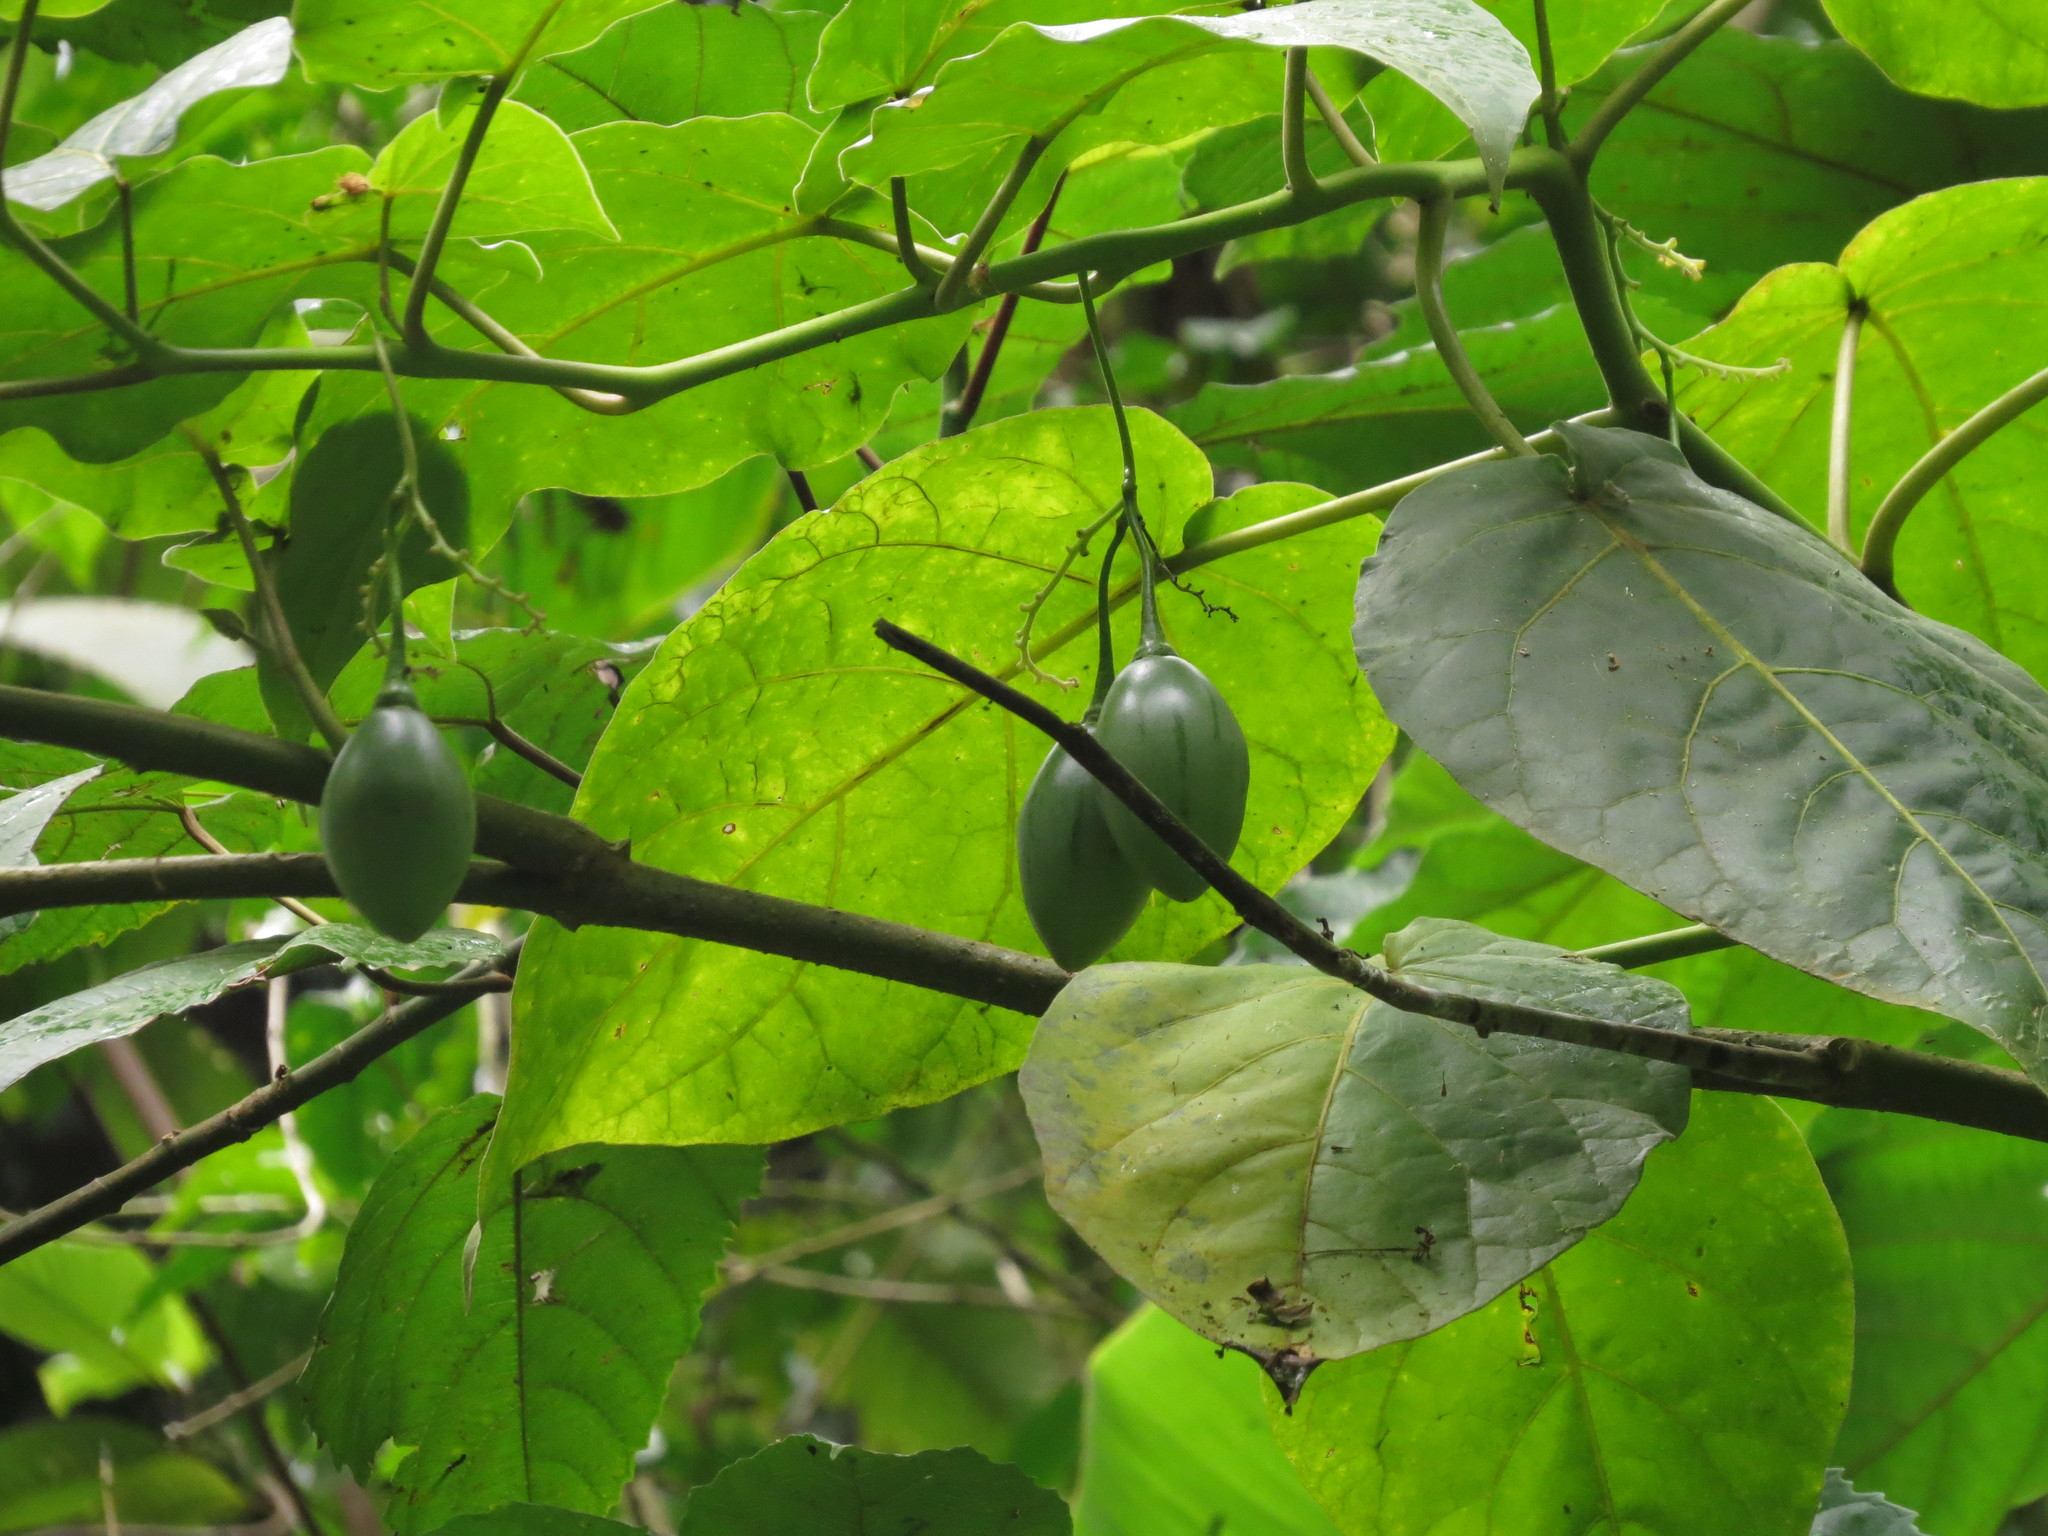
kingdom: Plantae
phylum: Tracheophyta
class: Magnoliopsida
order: Solanales
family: Solanaceae
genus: Solanum
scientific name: Solanum betaceum
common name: Tamarillo
